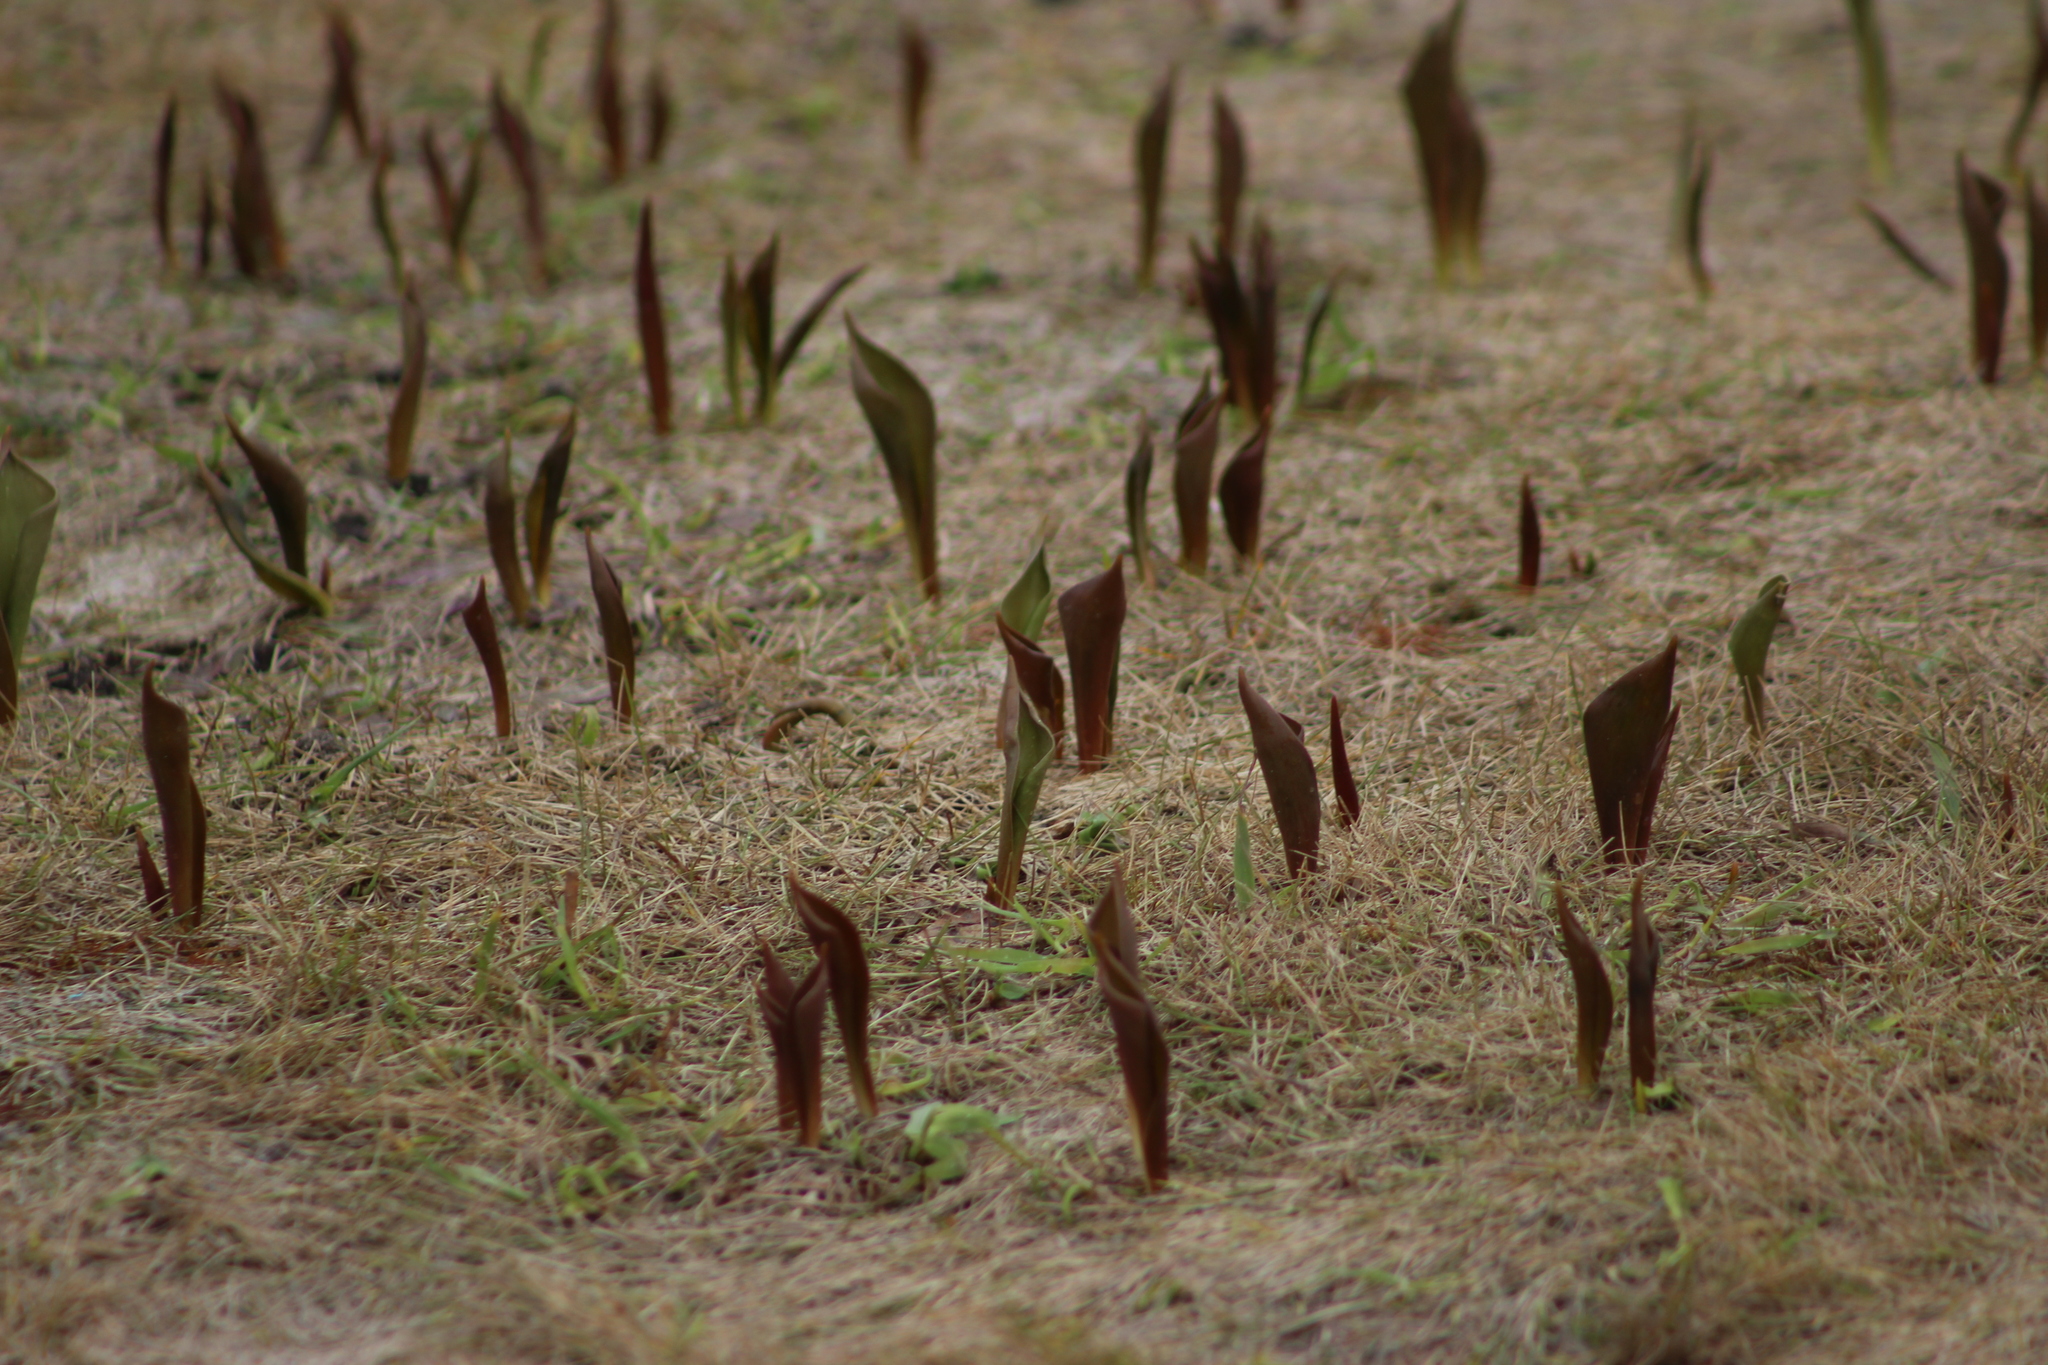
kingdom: Plantae
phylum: Tracheophyta
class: Liliopsida
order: Asparagales
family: Asparagaceae
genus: Convallaria
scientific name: Convallaria majalis
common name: Lily-of-the-valley
